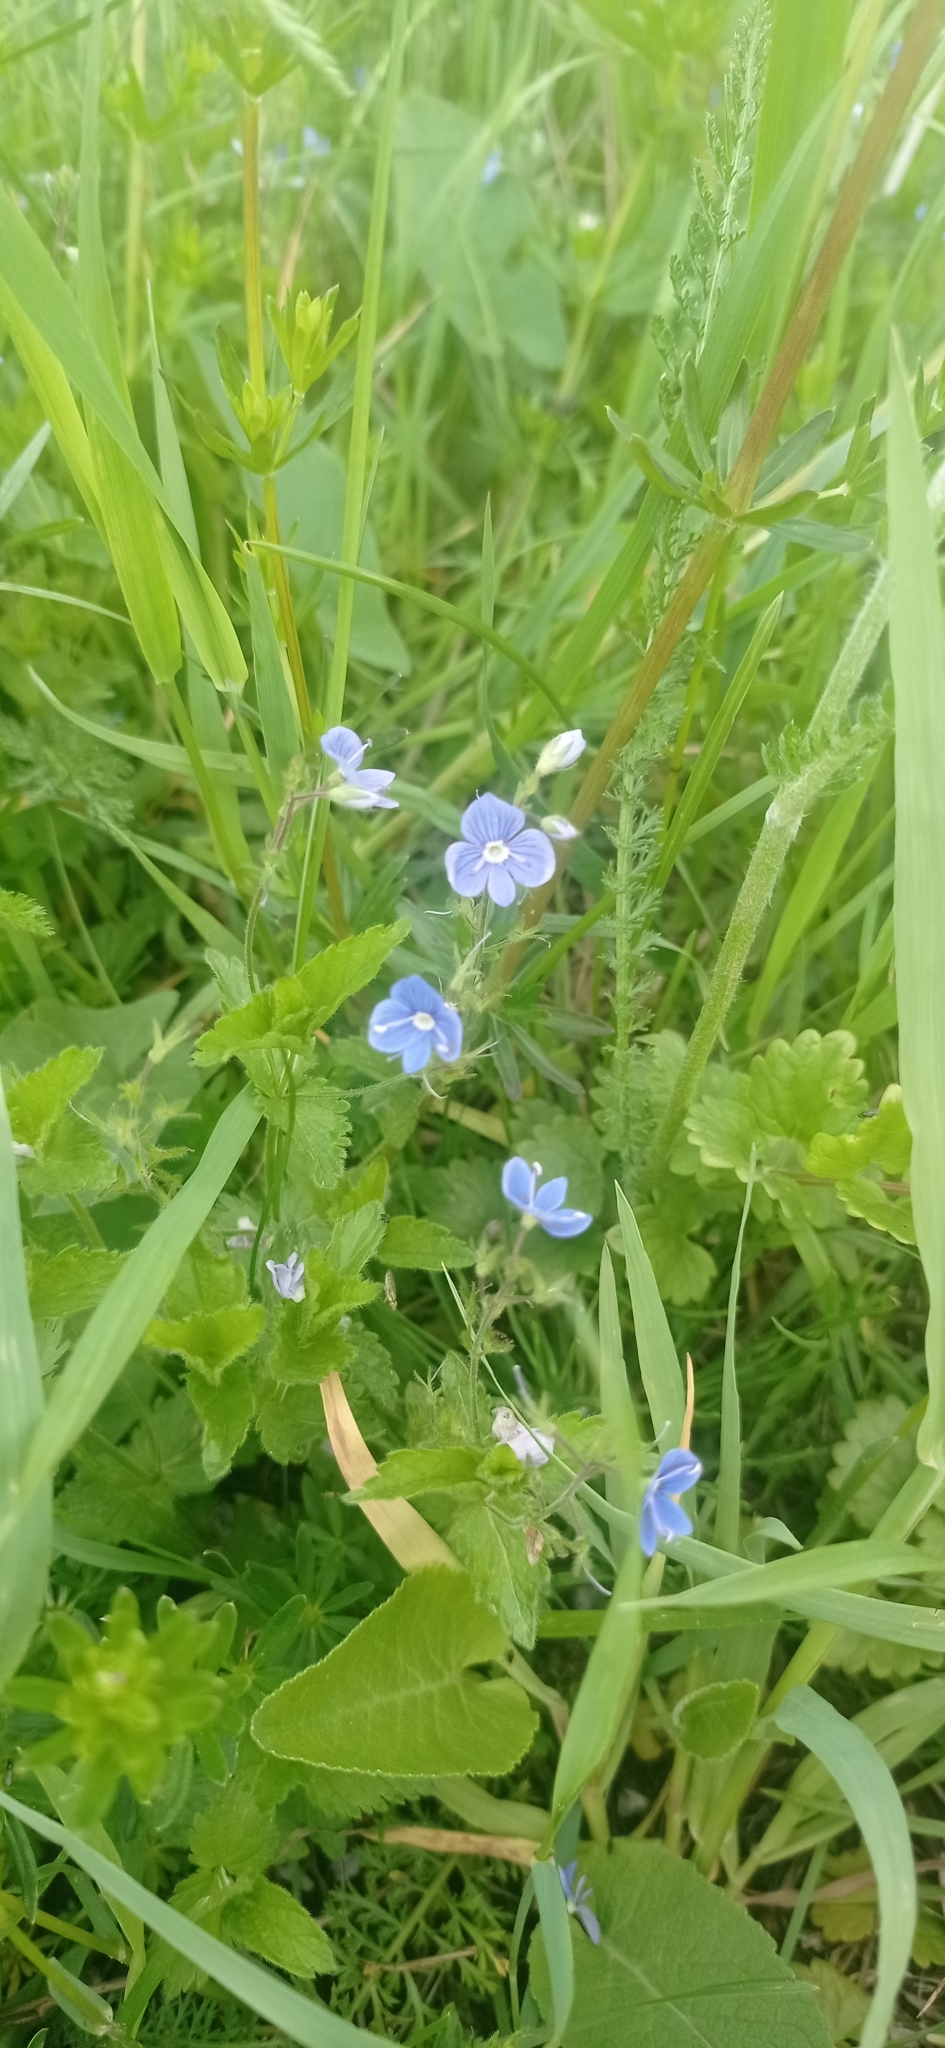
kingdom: Plantae
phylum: Tracheophyta
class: Magnoliopsida
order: Lamiales
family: Plantaginaceae
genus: Veronica
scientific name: Veronica chamaedrys
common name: Germander speedwell
